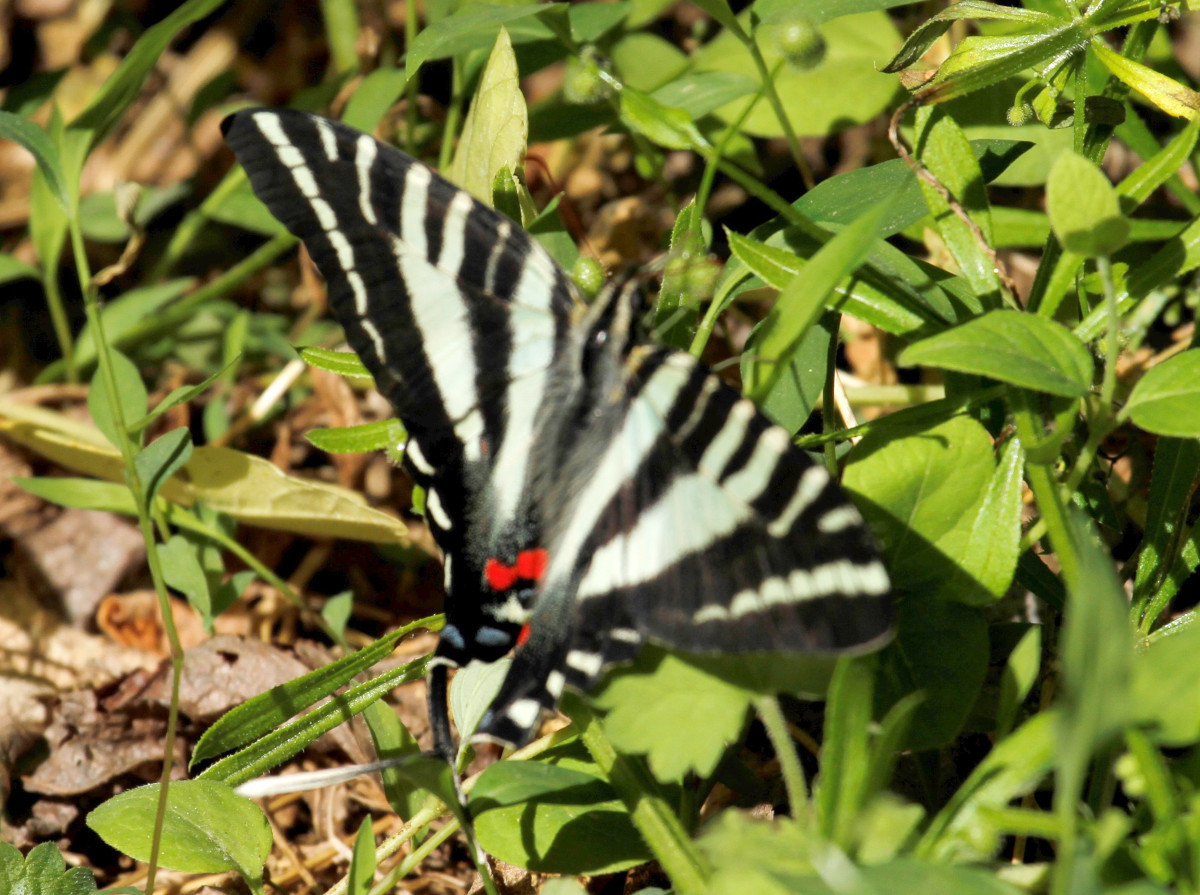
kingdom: Animalia
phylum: Arthropoda
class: Insecta
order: Lepidoptera
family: Papilionidae
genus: Protographium
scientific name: Protographium marcellus
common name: Zebra swallowtail
